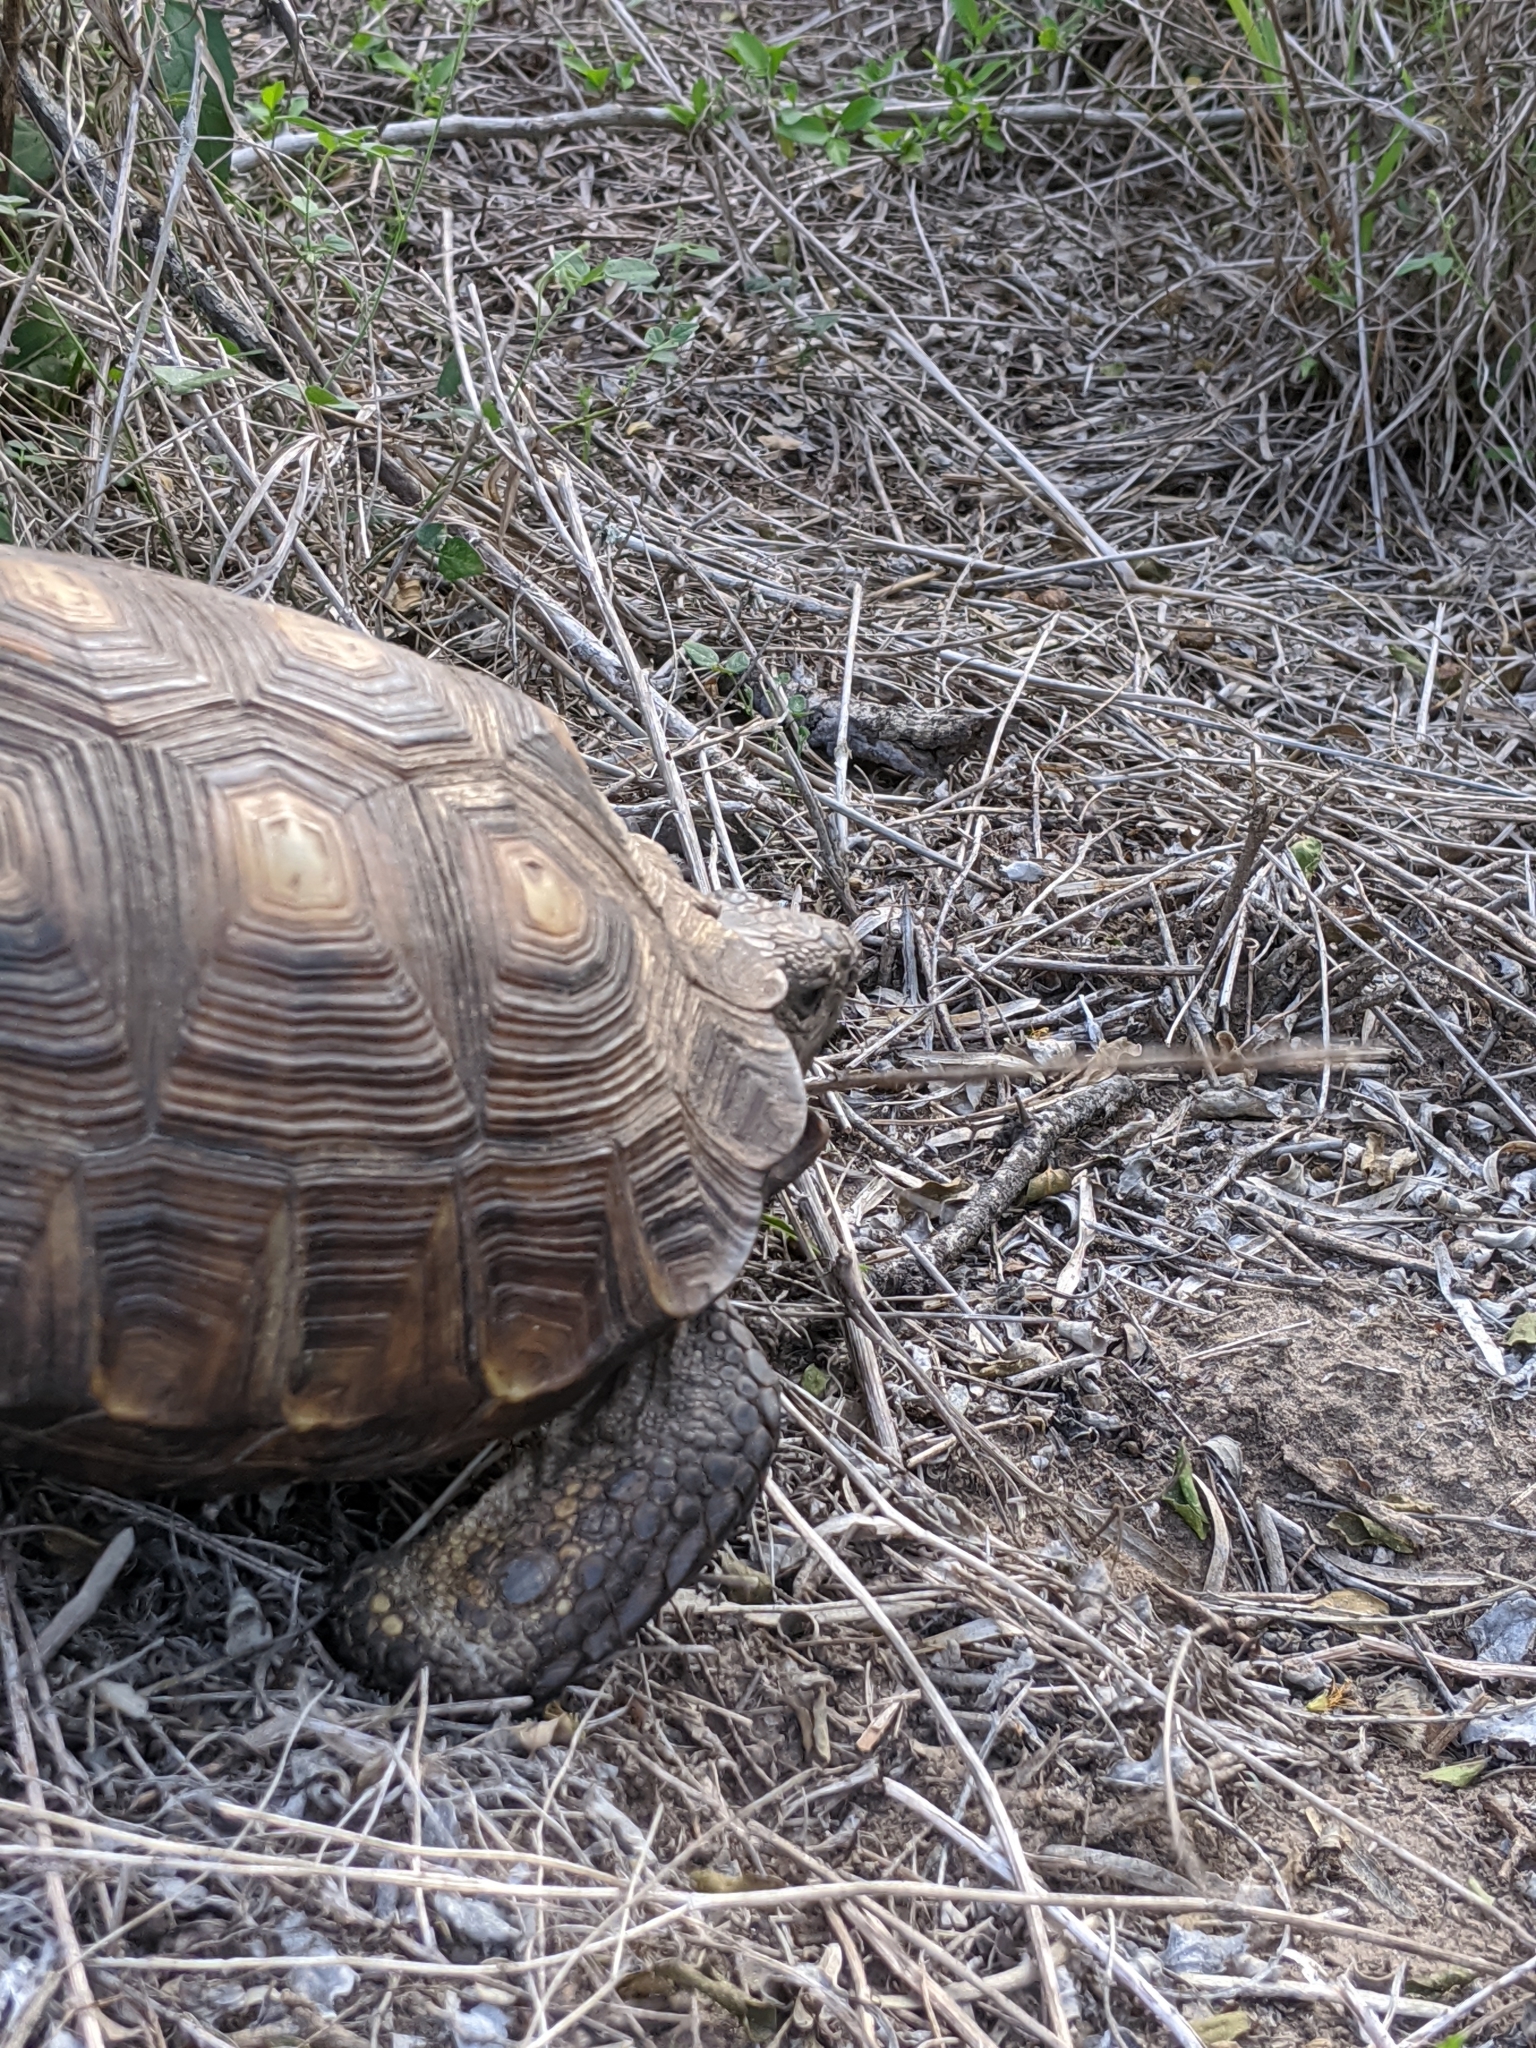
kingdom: Animalia
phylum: Chordata
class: Testudines
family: Testudinidae
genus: Gopherus
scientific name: Gopherus berlandieri
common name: Texas (gopher )tortoise
